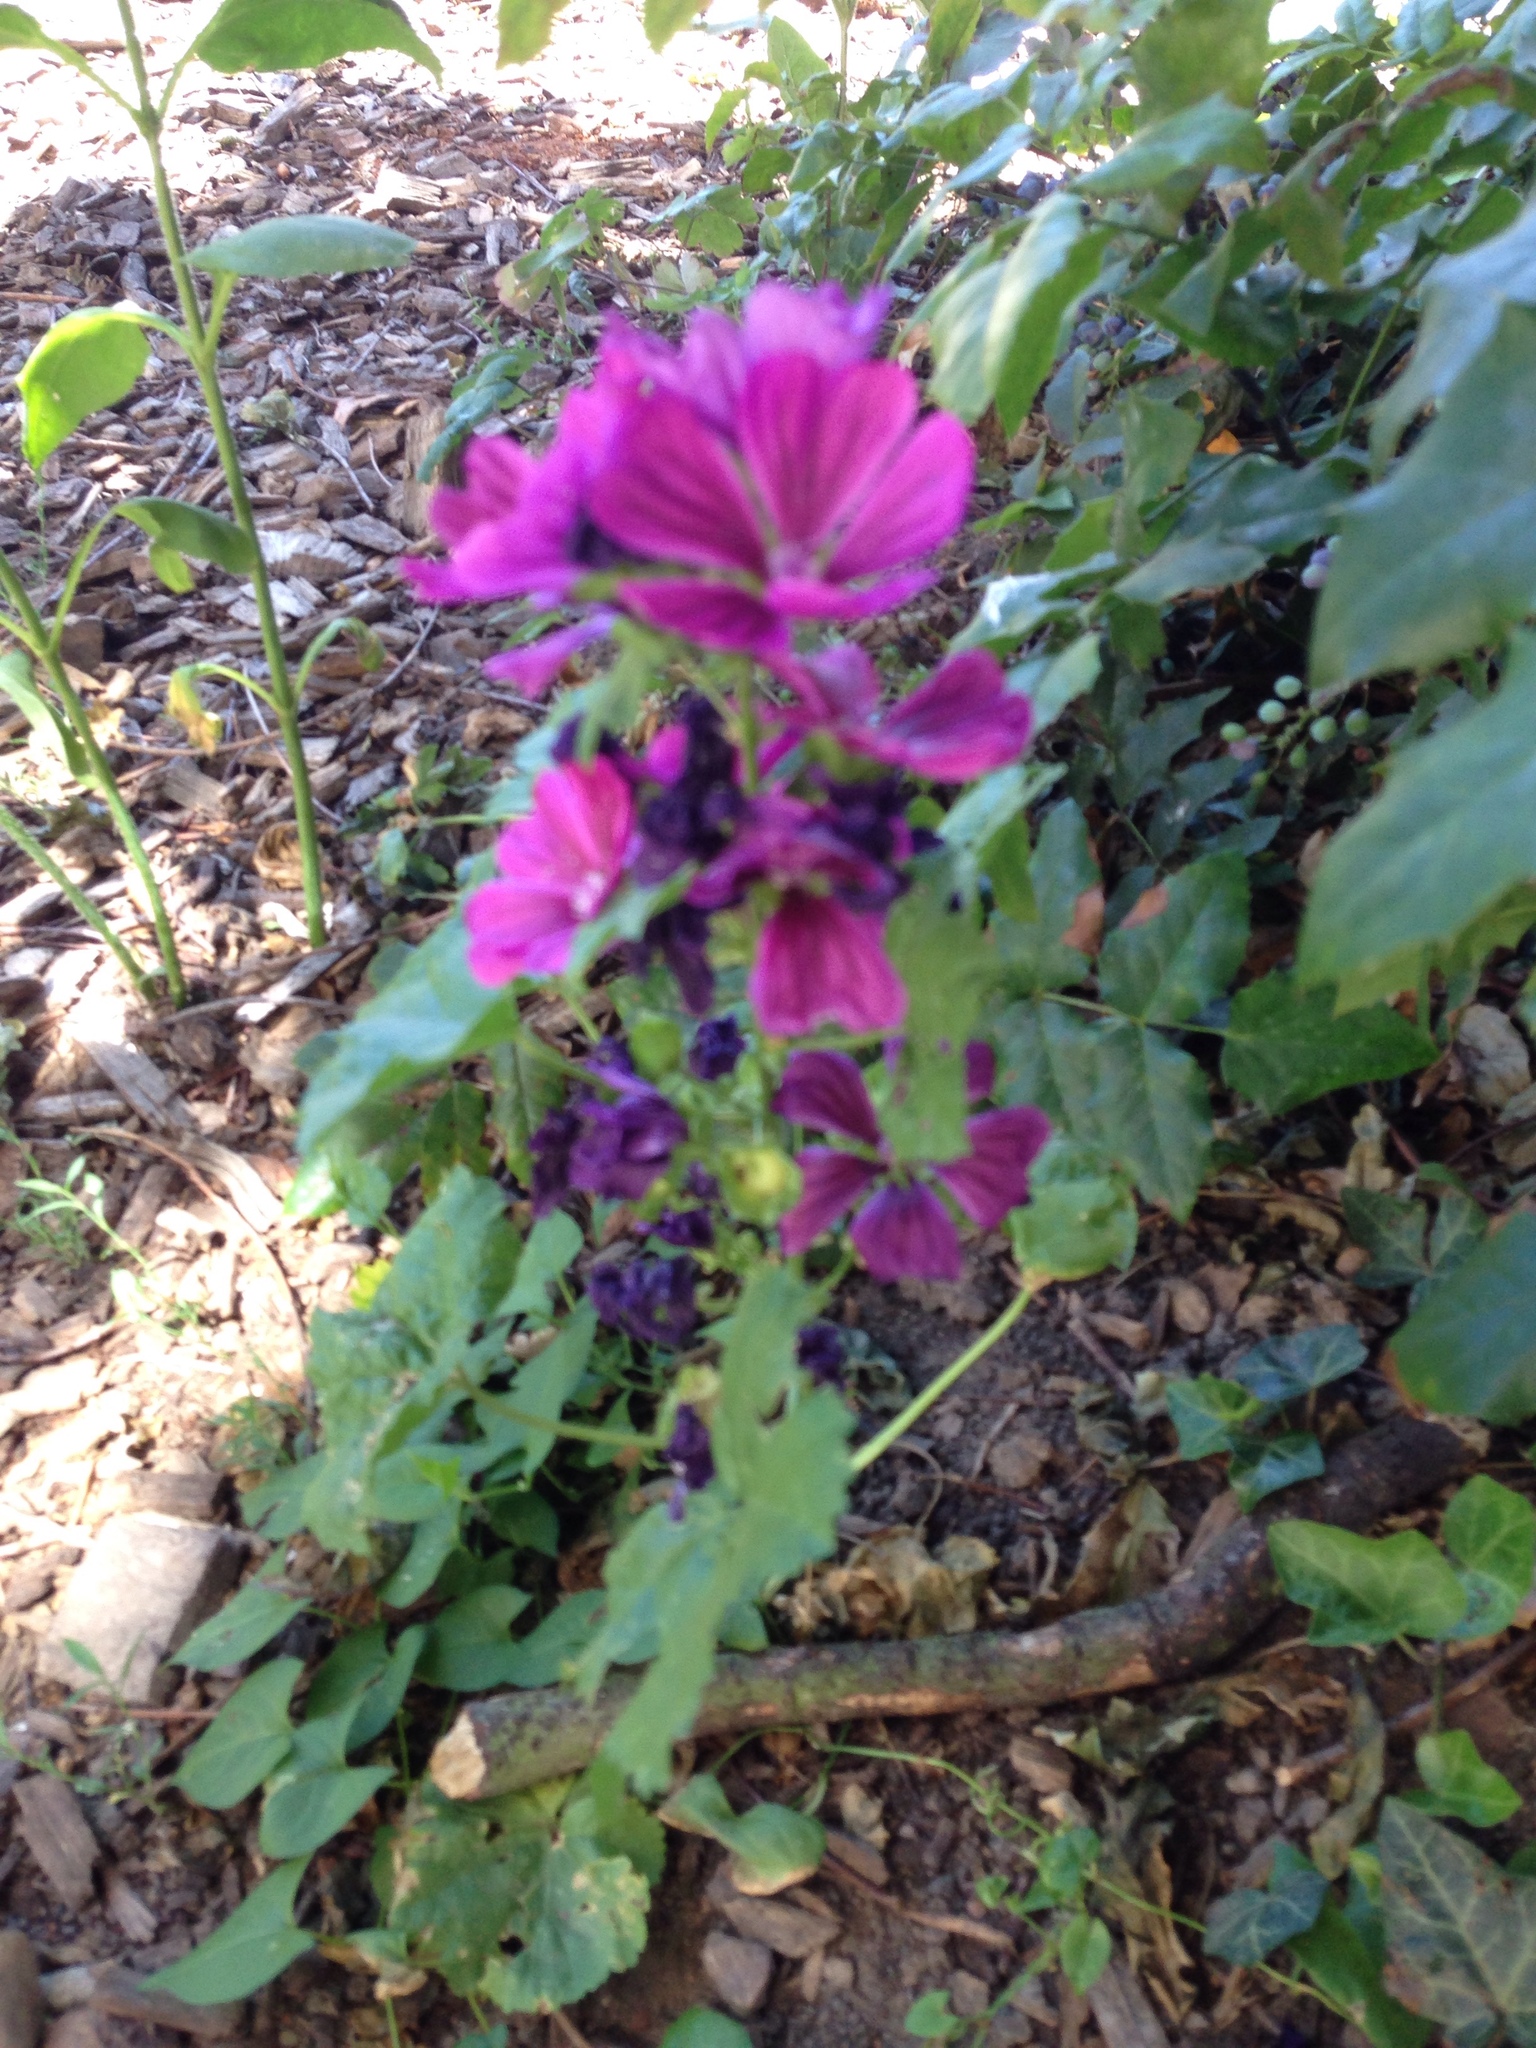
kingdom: Plantae
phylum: Tracheophyta
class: Magnoliopsida
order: Malvales
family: Malvaceae
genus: Malva
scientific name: Malva sylvestris
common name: Common mallow
